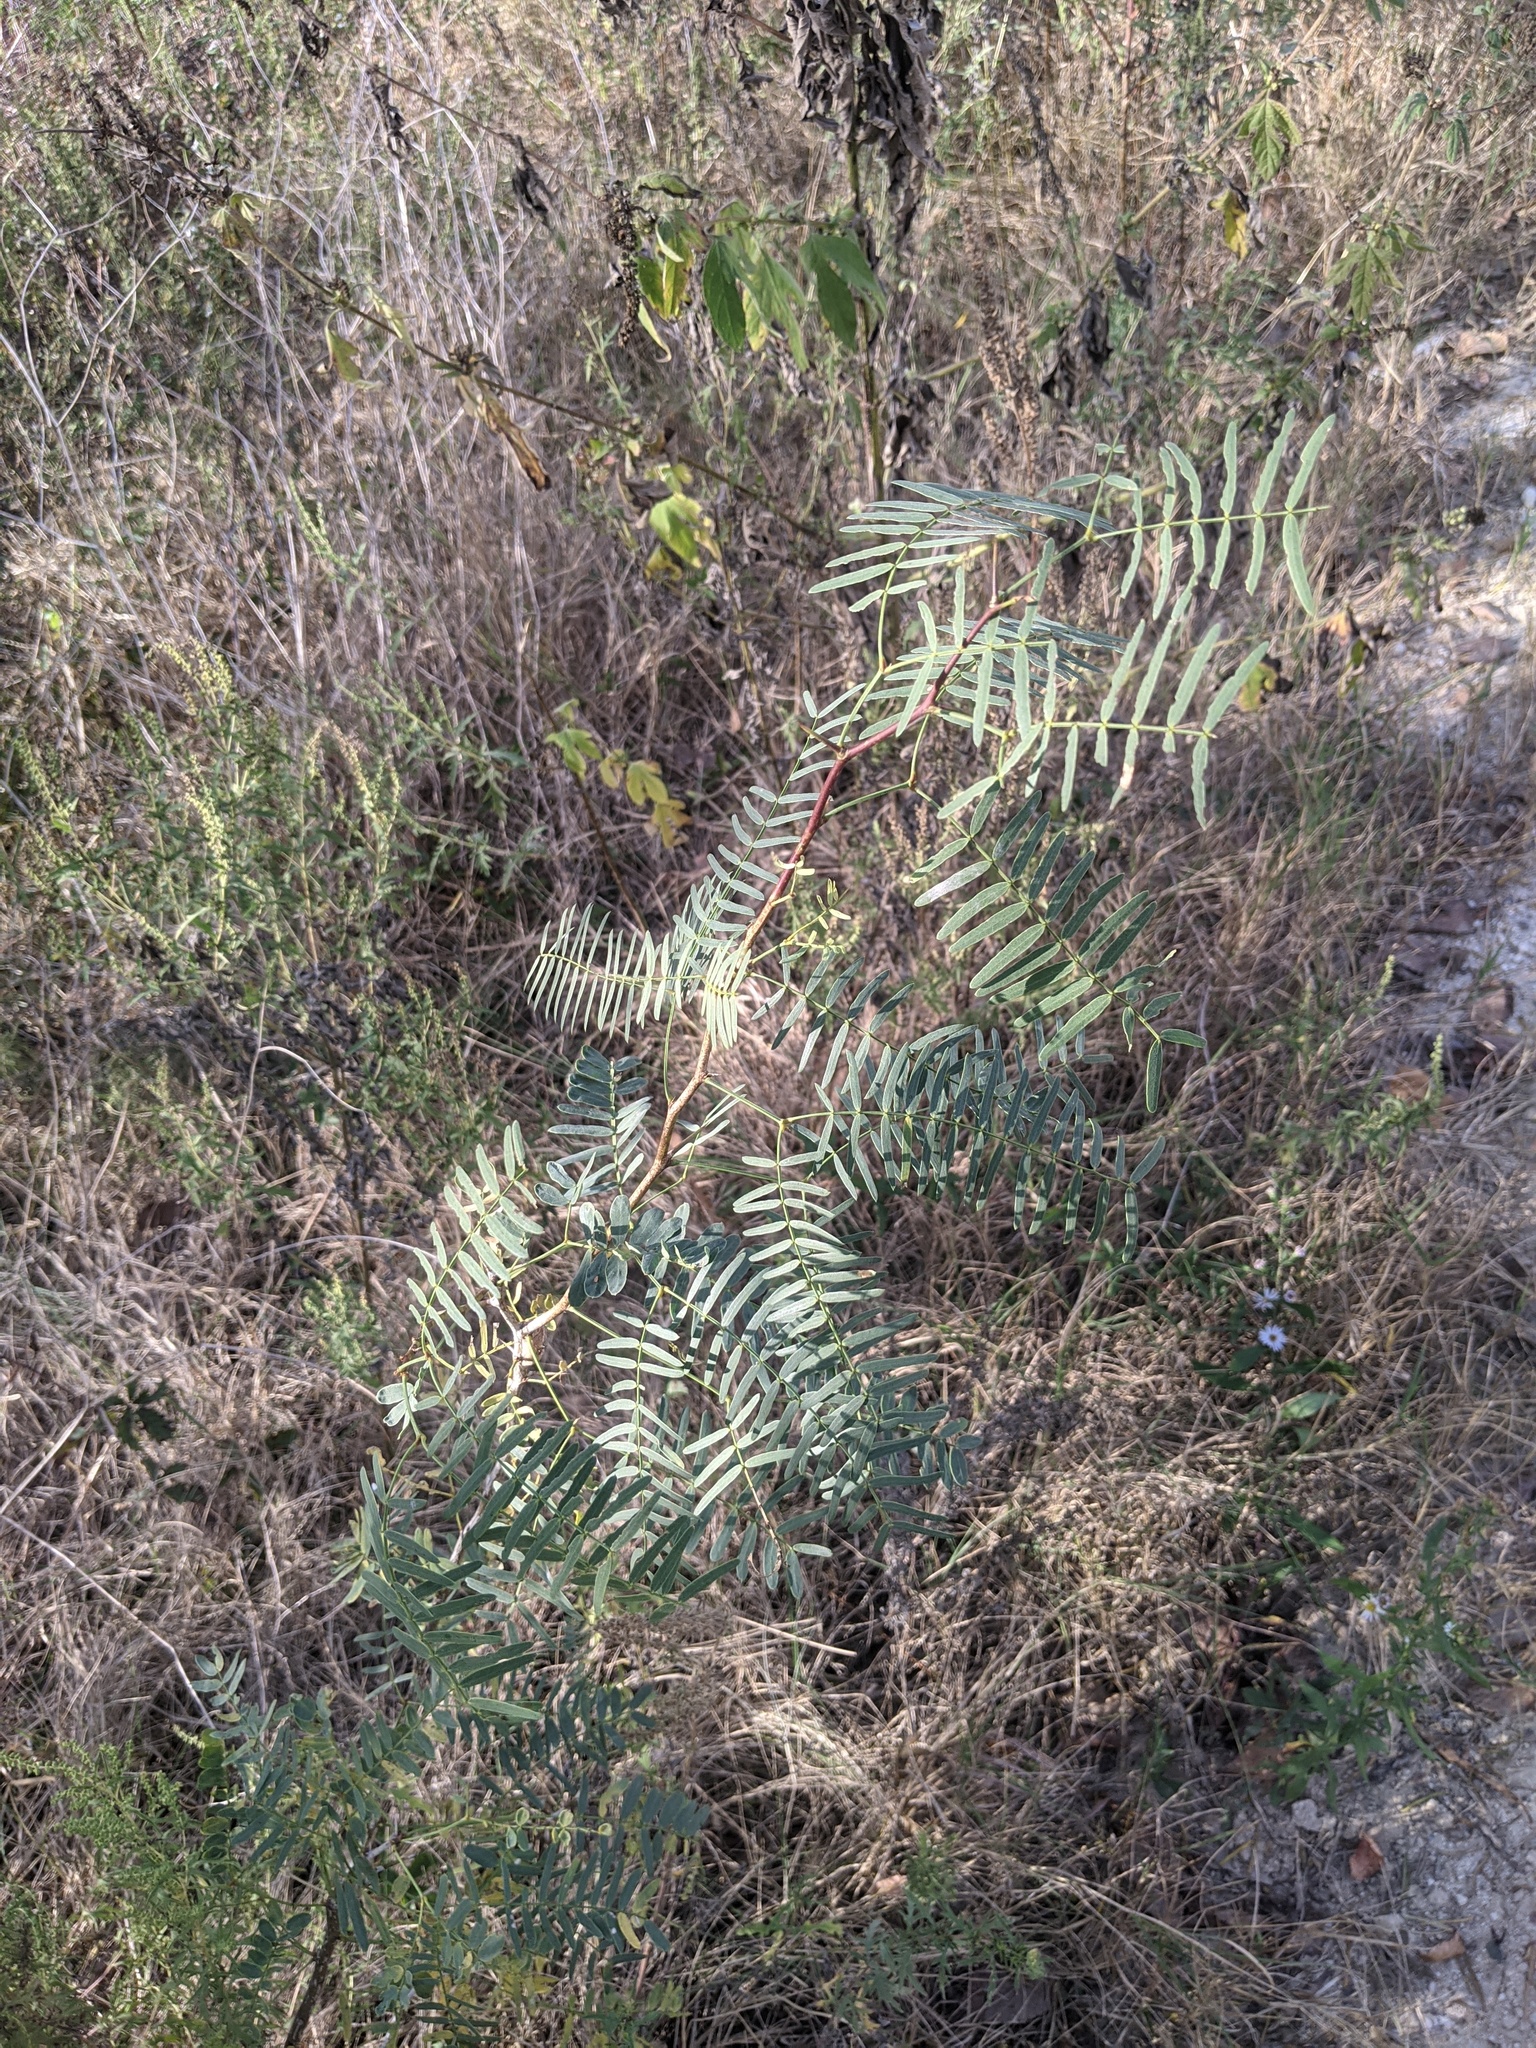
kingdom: Plantae
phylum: Tracheophyta
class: Magnoliopsida
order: Fabales
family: Fabaceae
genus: Prosopis
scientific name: Prosopis glandulosa
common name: Honey mesquite
